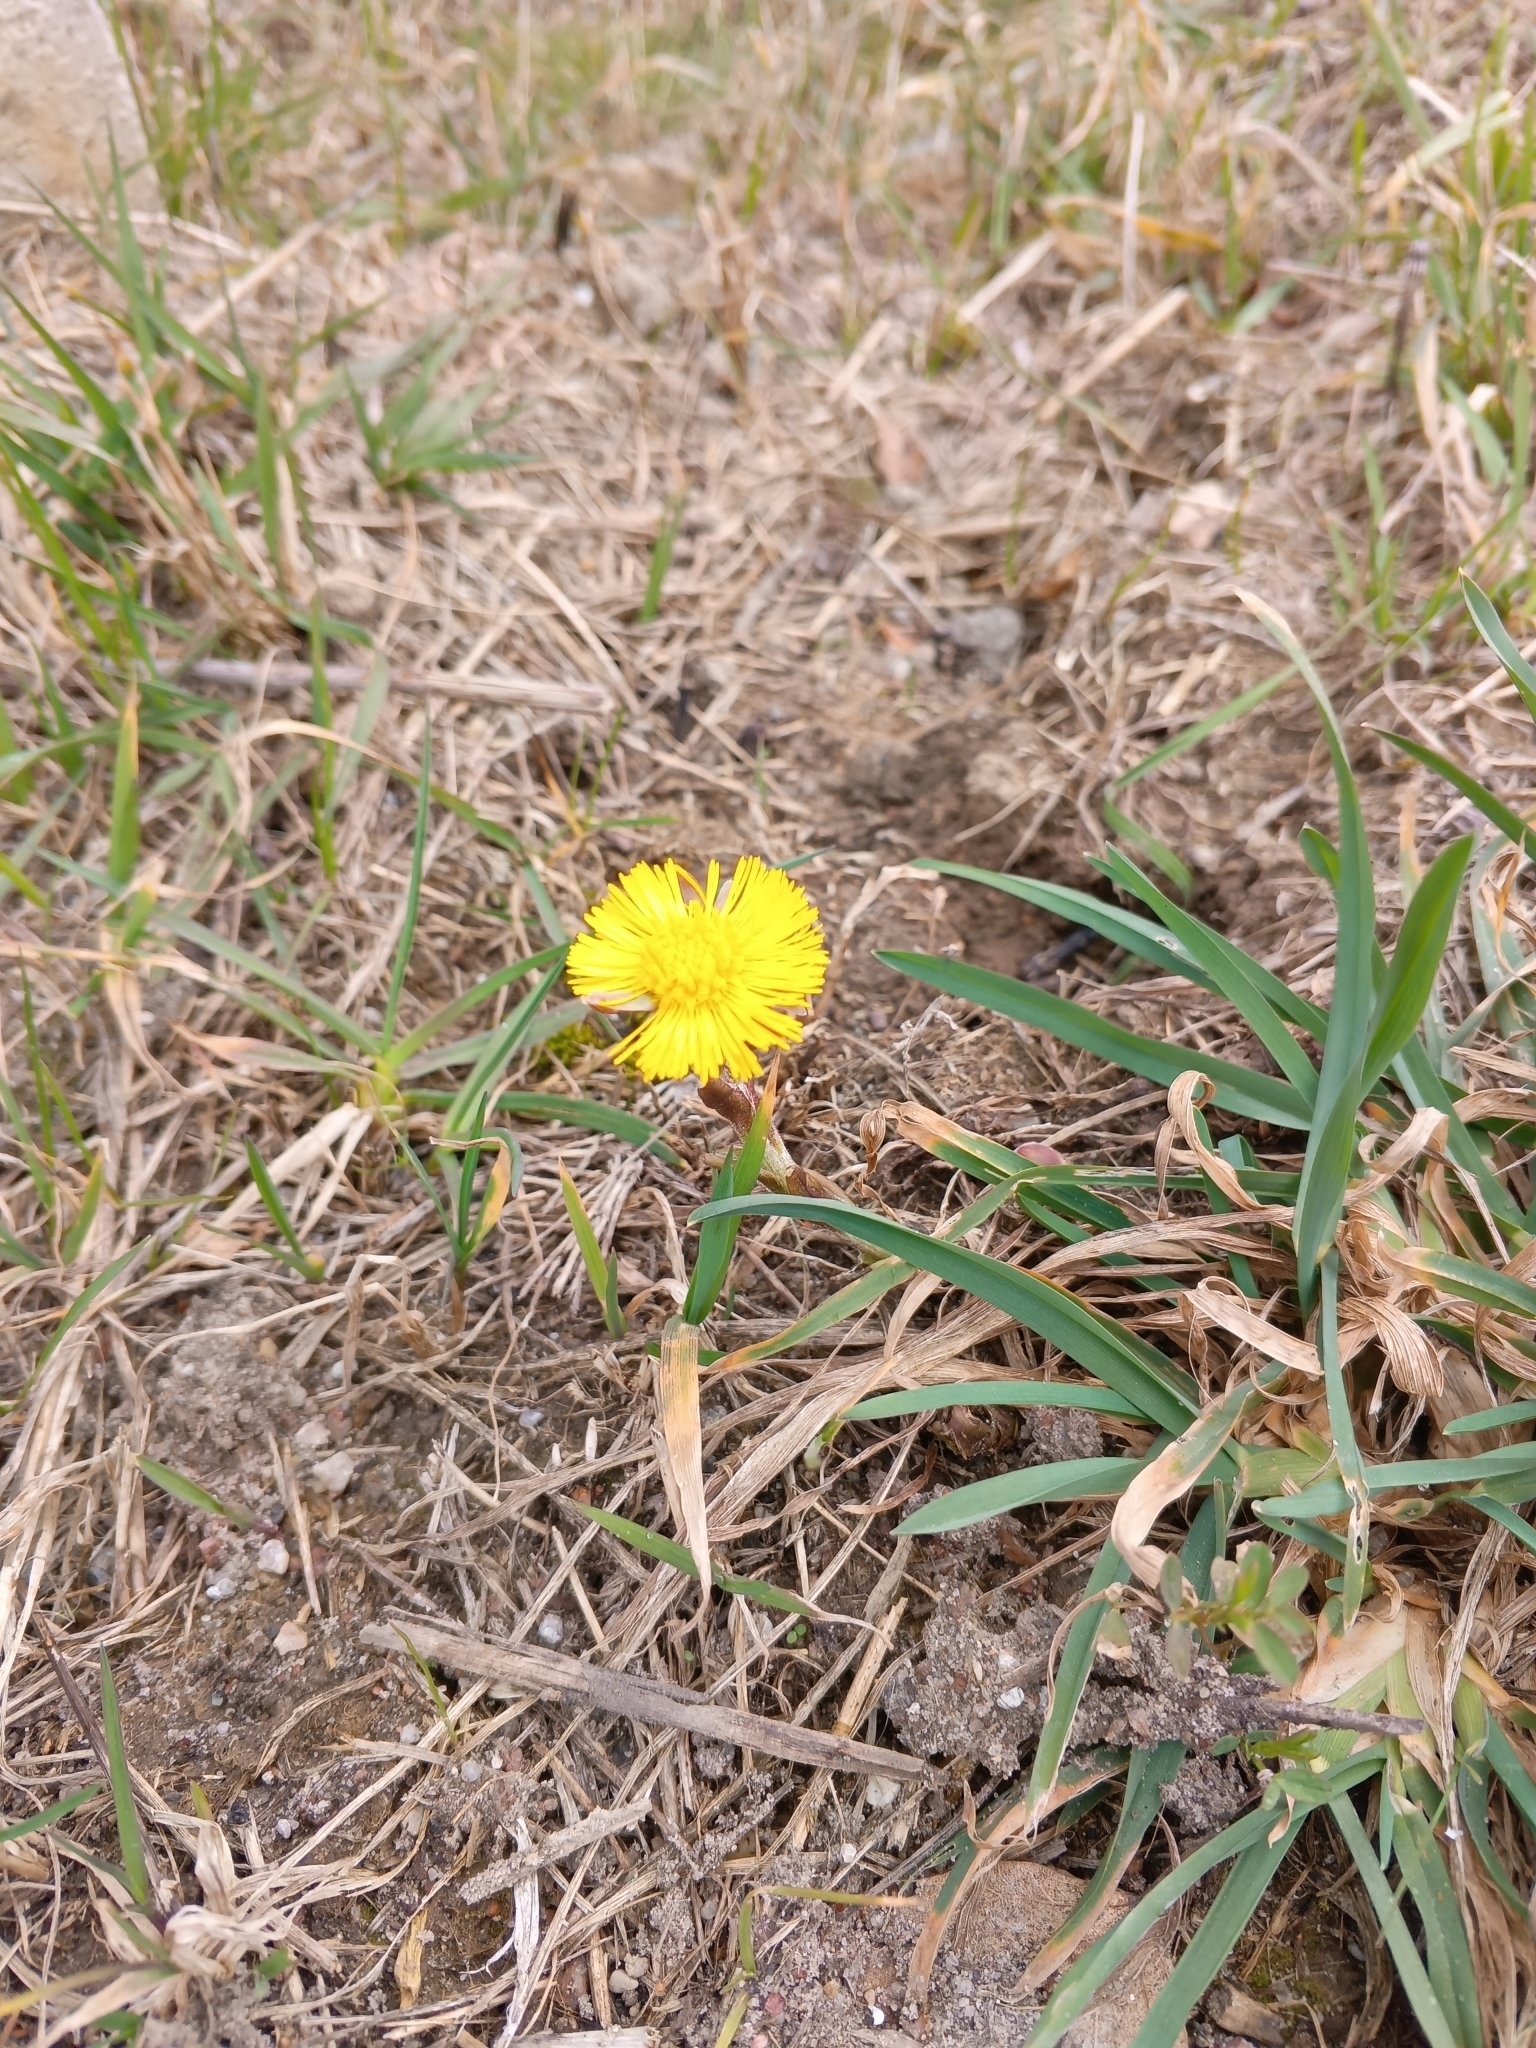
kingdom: Plantae
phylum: Tracheophyta
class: Magnoliopsida
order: Asterales
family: Asteraceae
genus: Tussilago
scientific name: Tussilago farfara
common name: Coltsfoot
